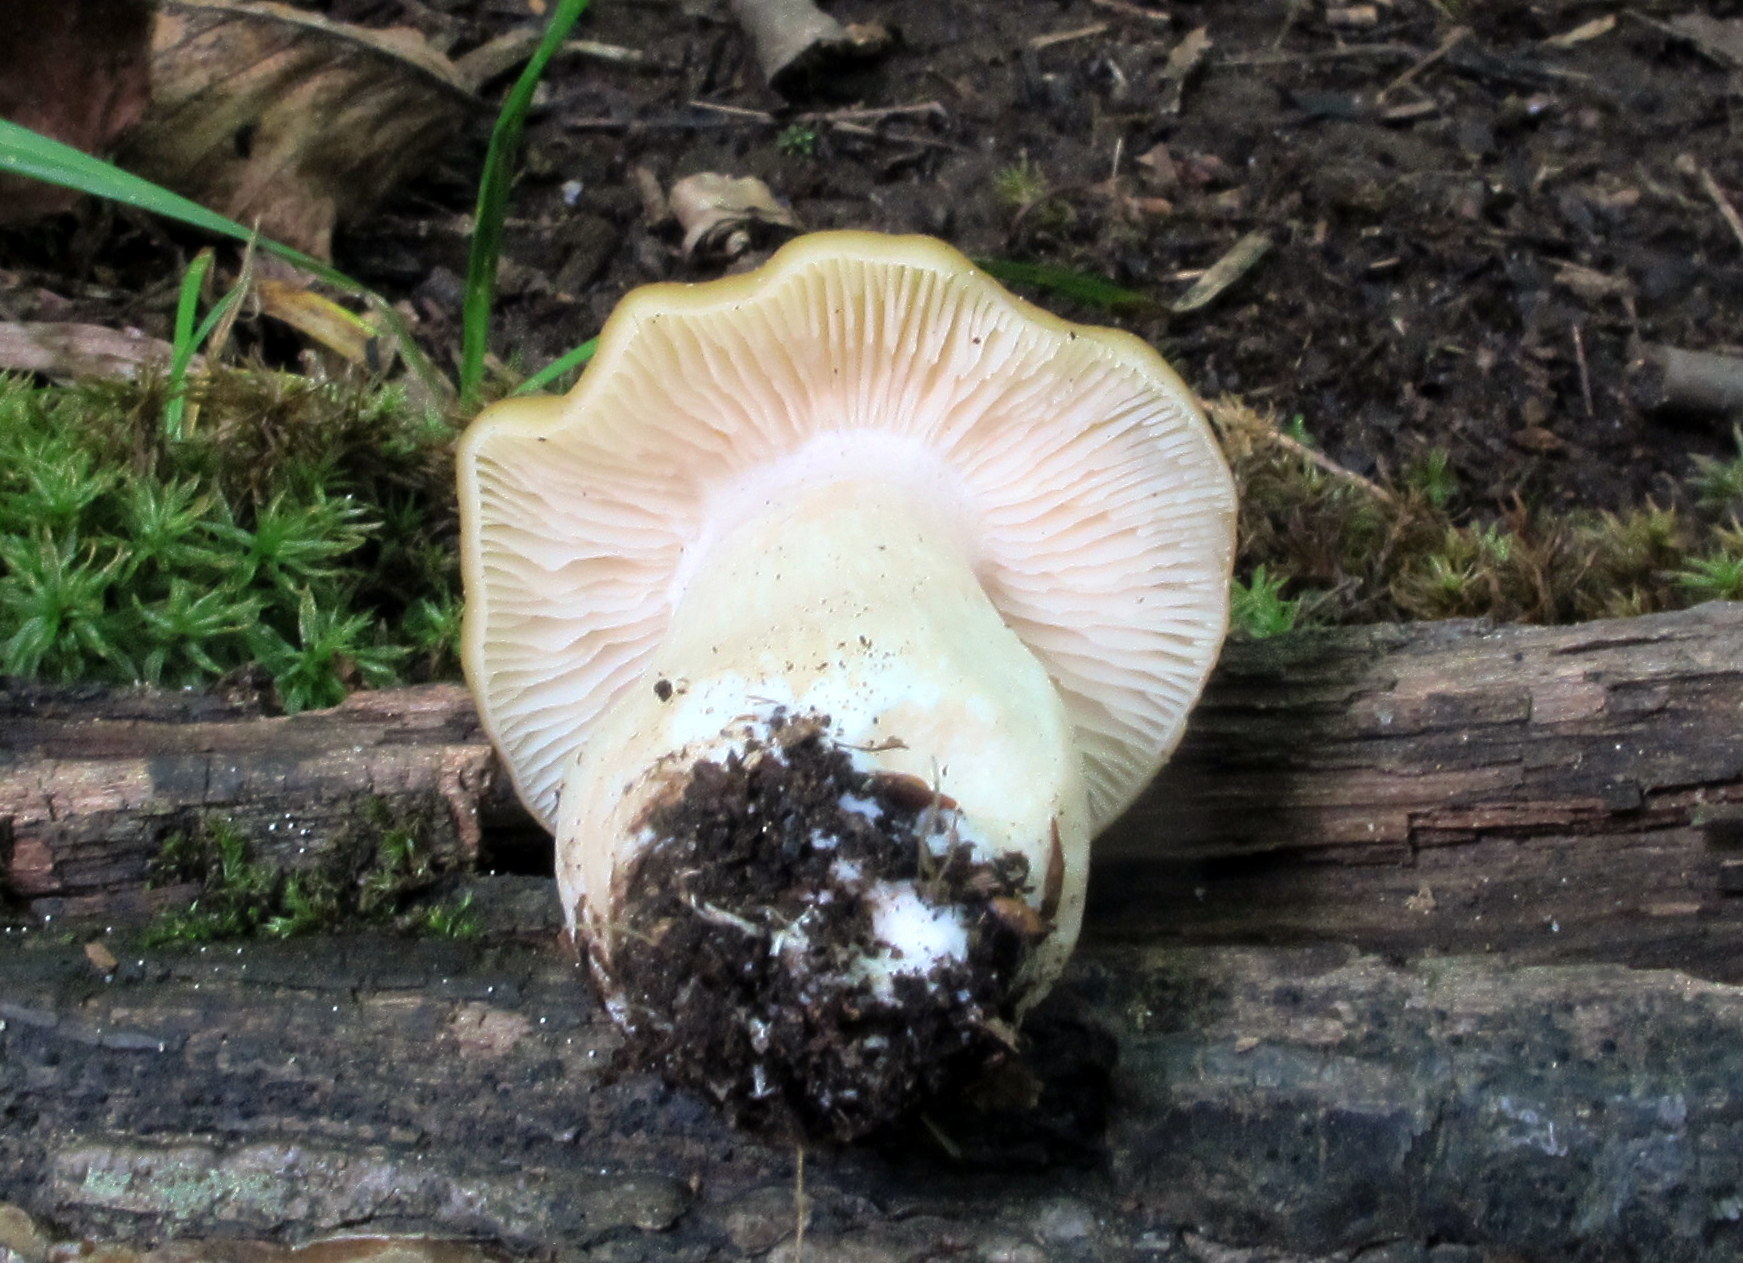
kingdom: Fungi
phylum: Basidiomycota
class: Agaricomycetes
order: Agaricales
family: Entolomataceae
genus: Entoloma
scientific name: Entoloma bicolor
